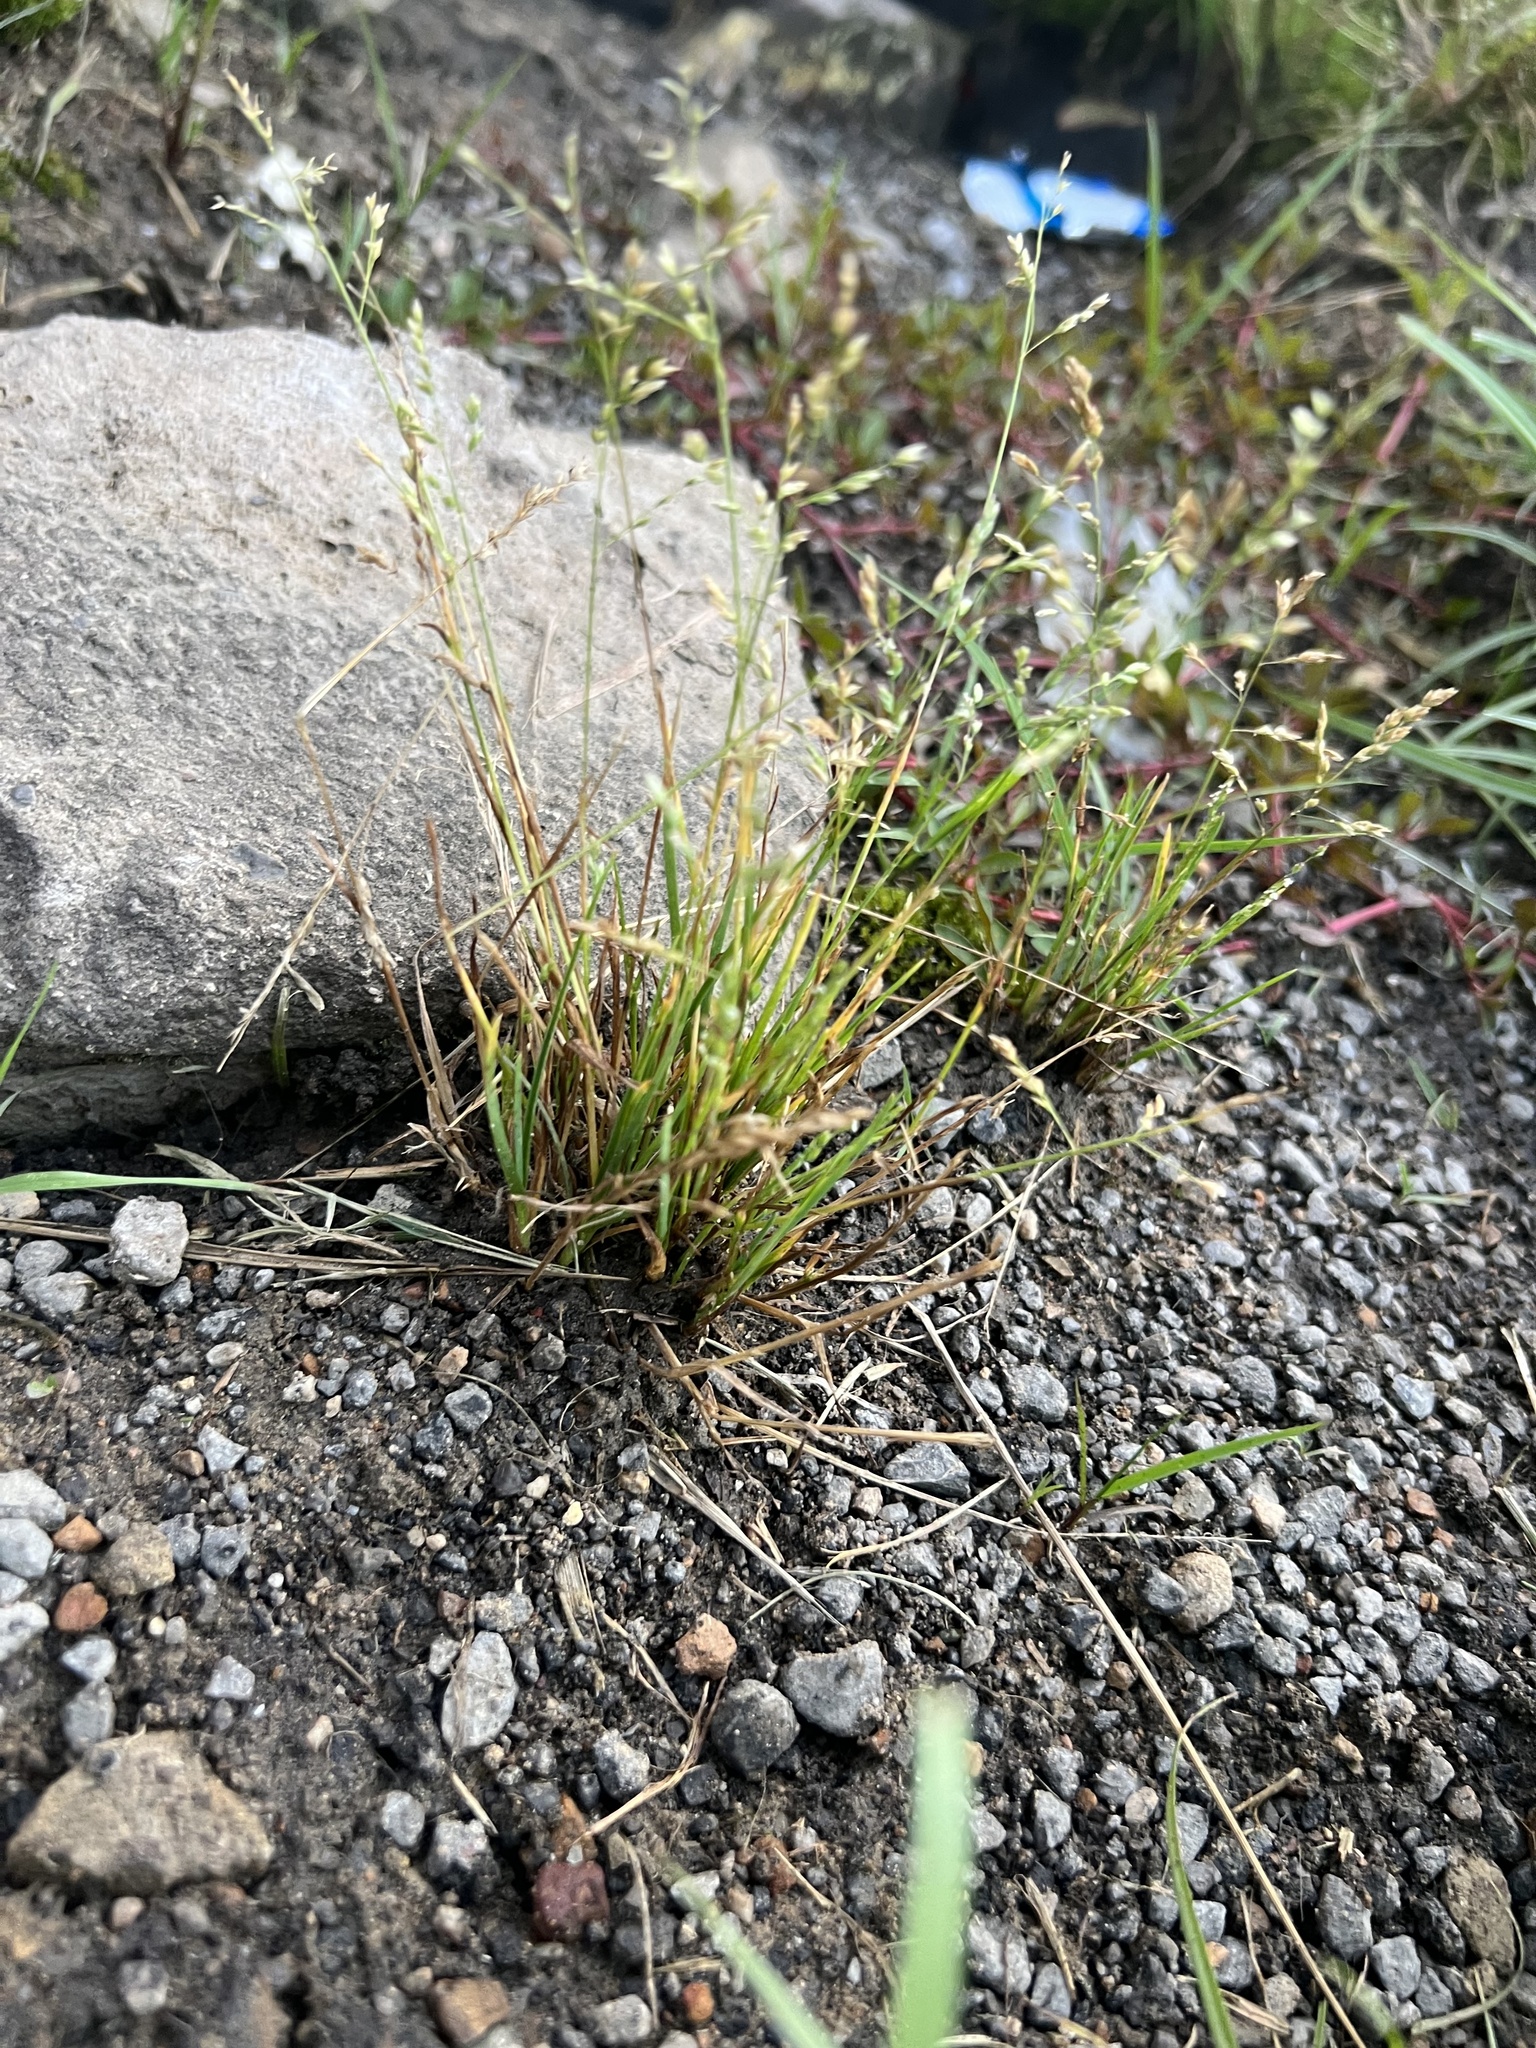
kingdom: Plantae
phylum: Tracheophyta
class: Liliopsida
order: Poales
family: Poaceae
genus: Poa
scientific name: Poa annua
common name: Annual bluegrass
